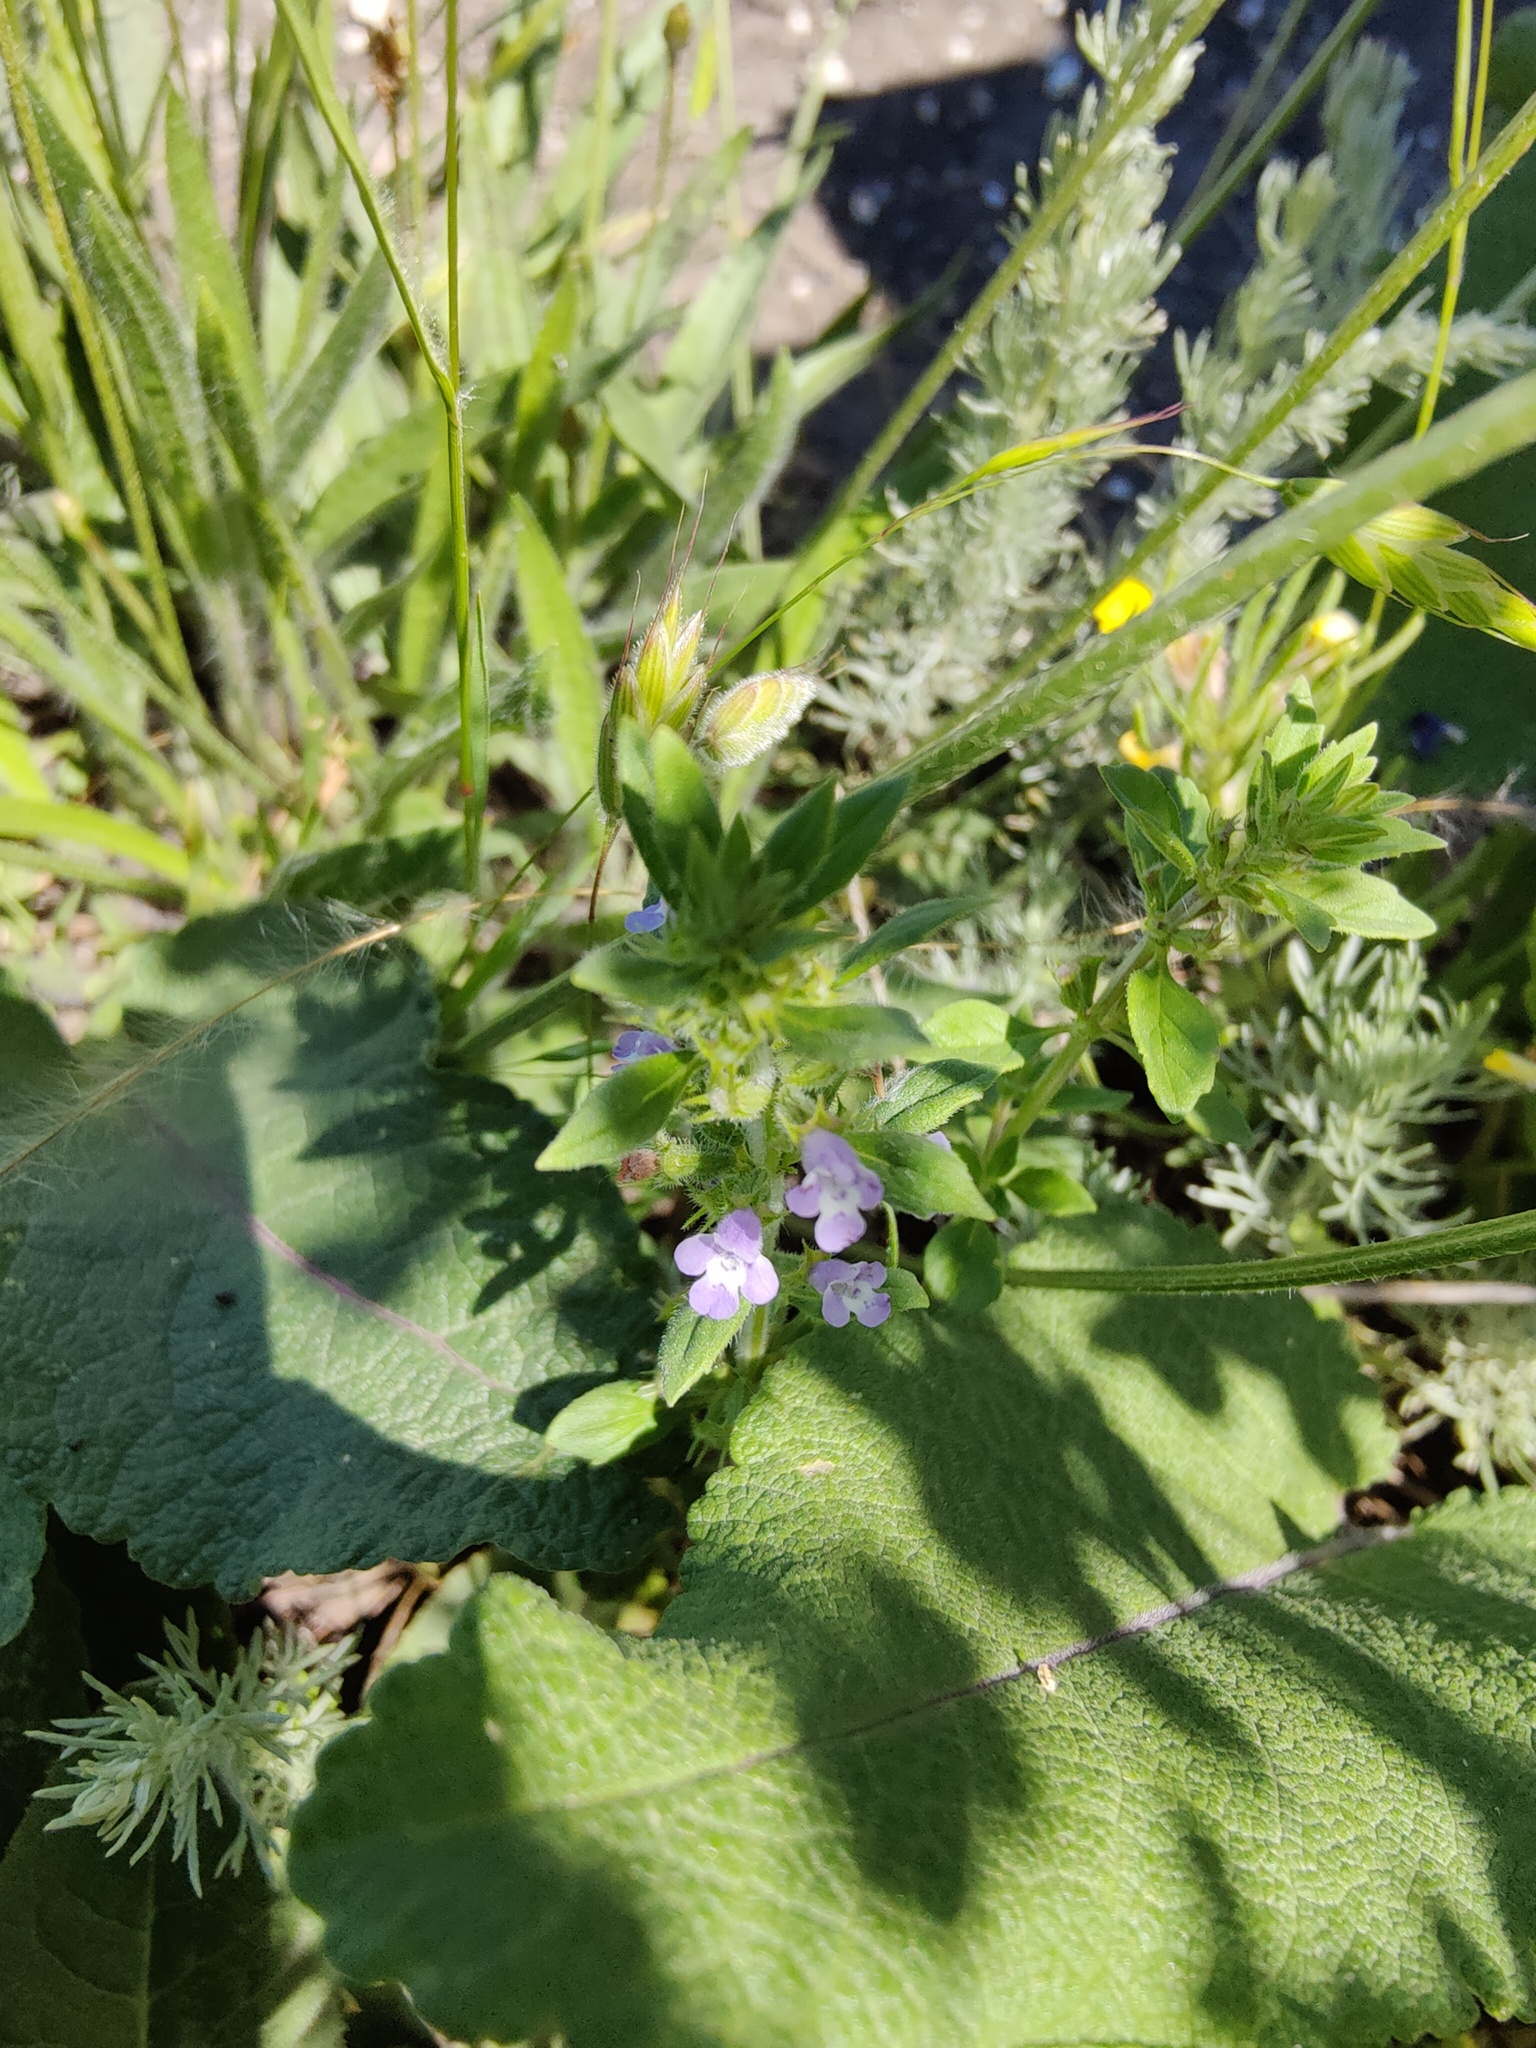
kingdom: Plantae
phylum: Tracheophyta
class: Magnoliopsida
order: Lamiales
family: Lamiaceae
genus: Clinopodium
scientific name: Clinopodium acinos
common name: Basil thyme
